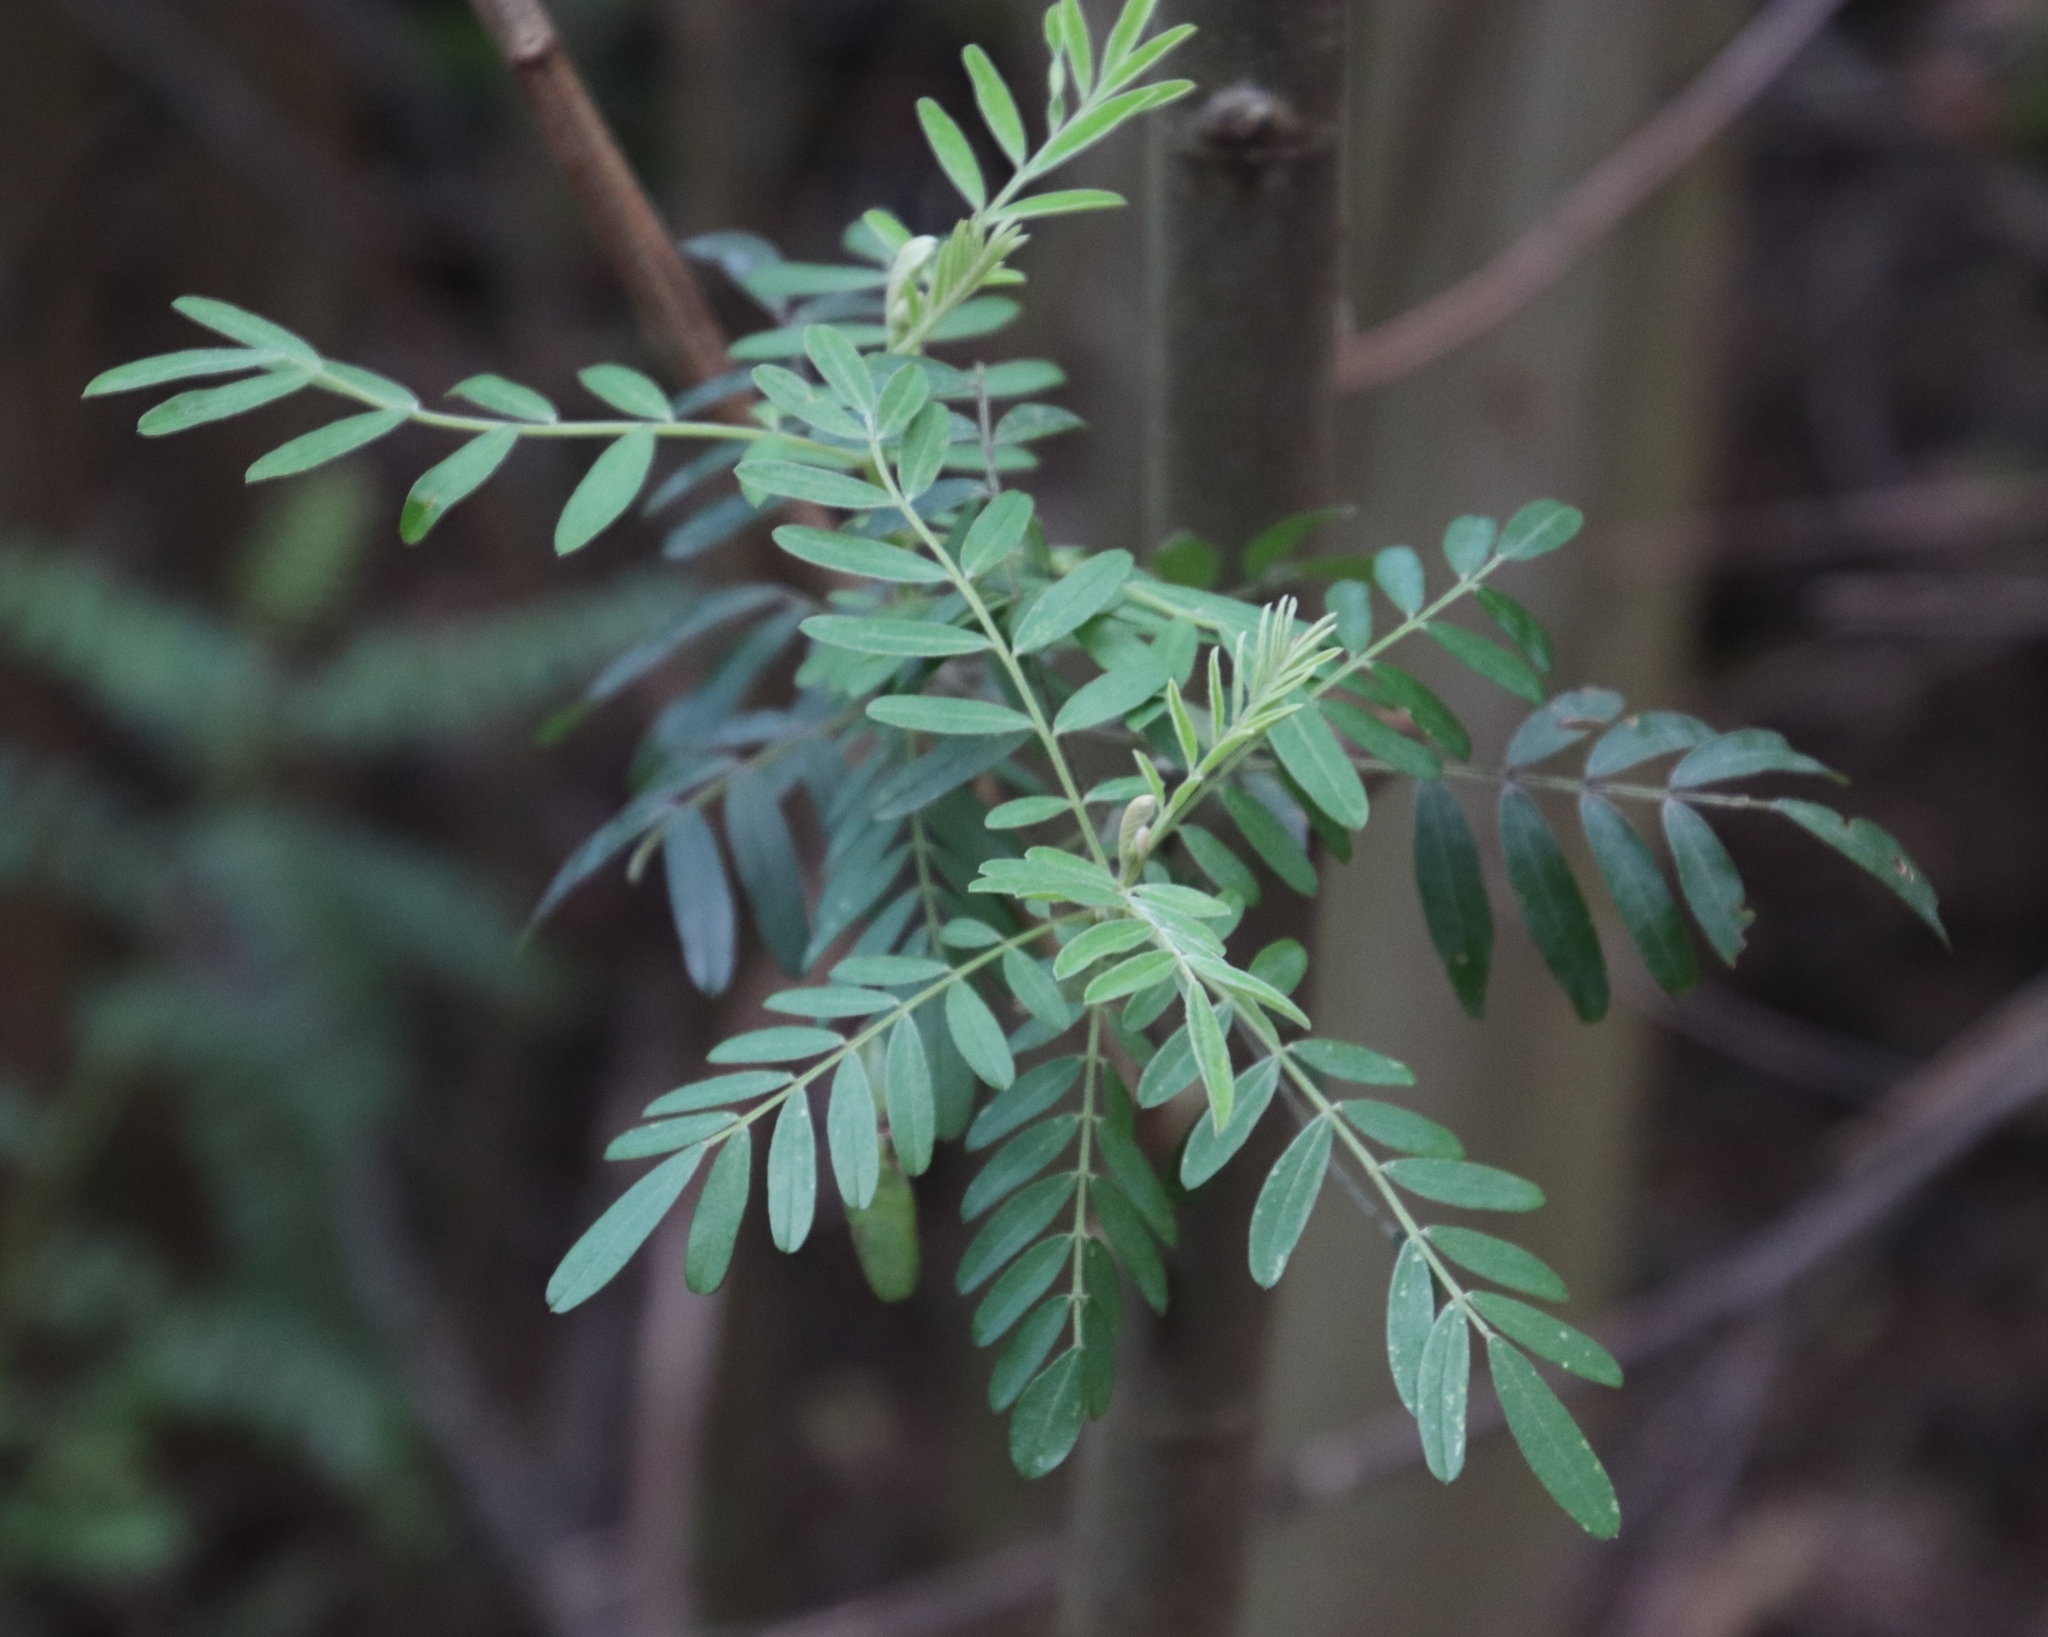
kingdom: Plantae
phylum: Tracheophyta
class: Magnoliopsida
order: Fabales
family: Fabaceae
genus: Virgilia
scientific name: Virgilia oroboides
